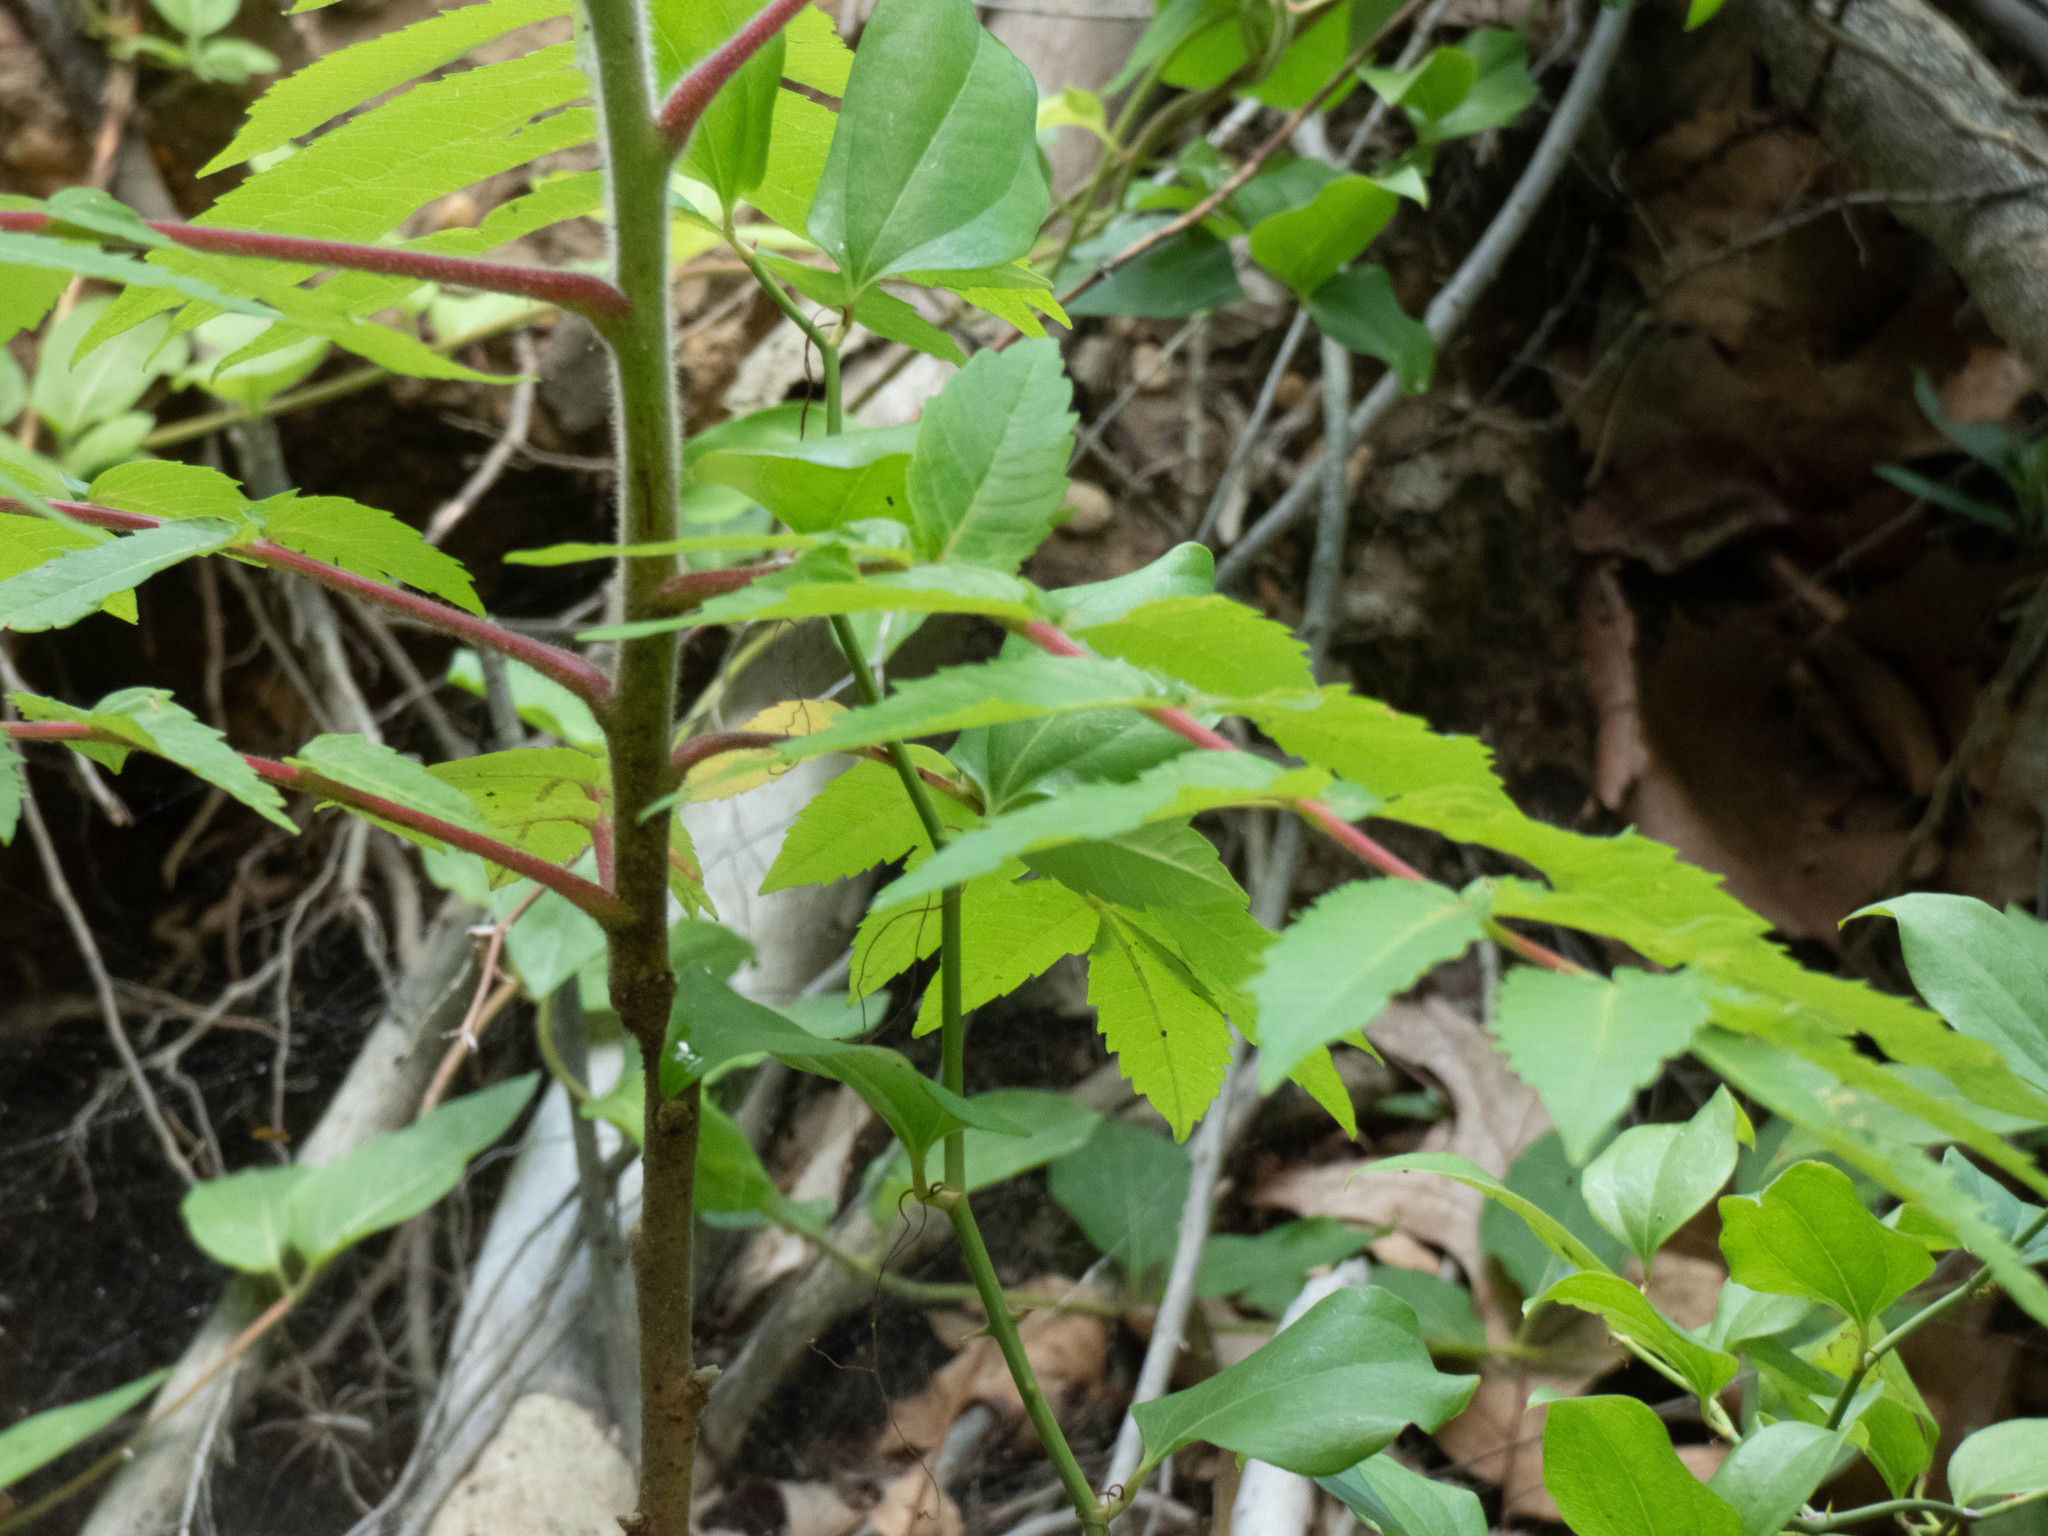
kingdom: Plantae
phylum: Tracheophyta
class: Magnoliopsida
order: Sapindales
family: Anacardiaceae
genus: Rhus
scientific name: Rhus typhina
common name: Staghorn sumac
